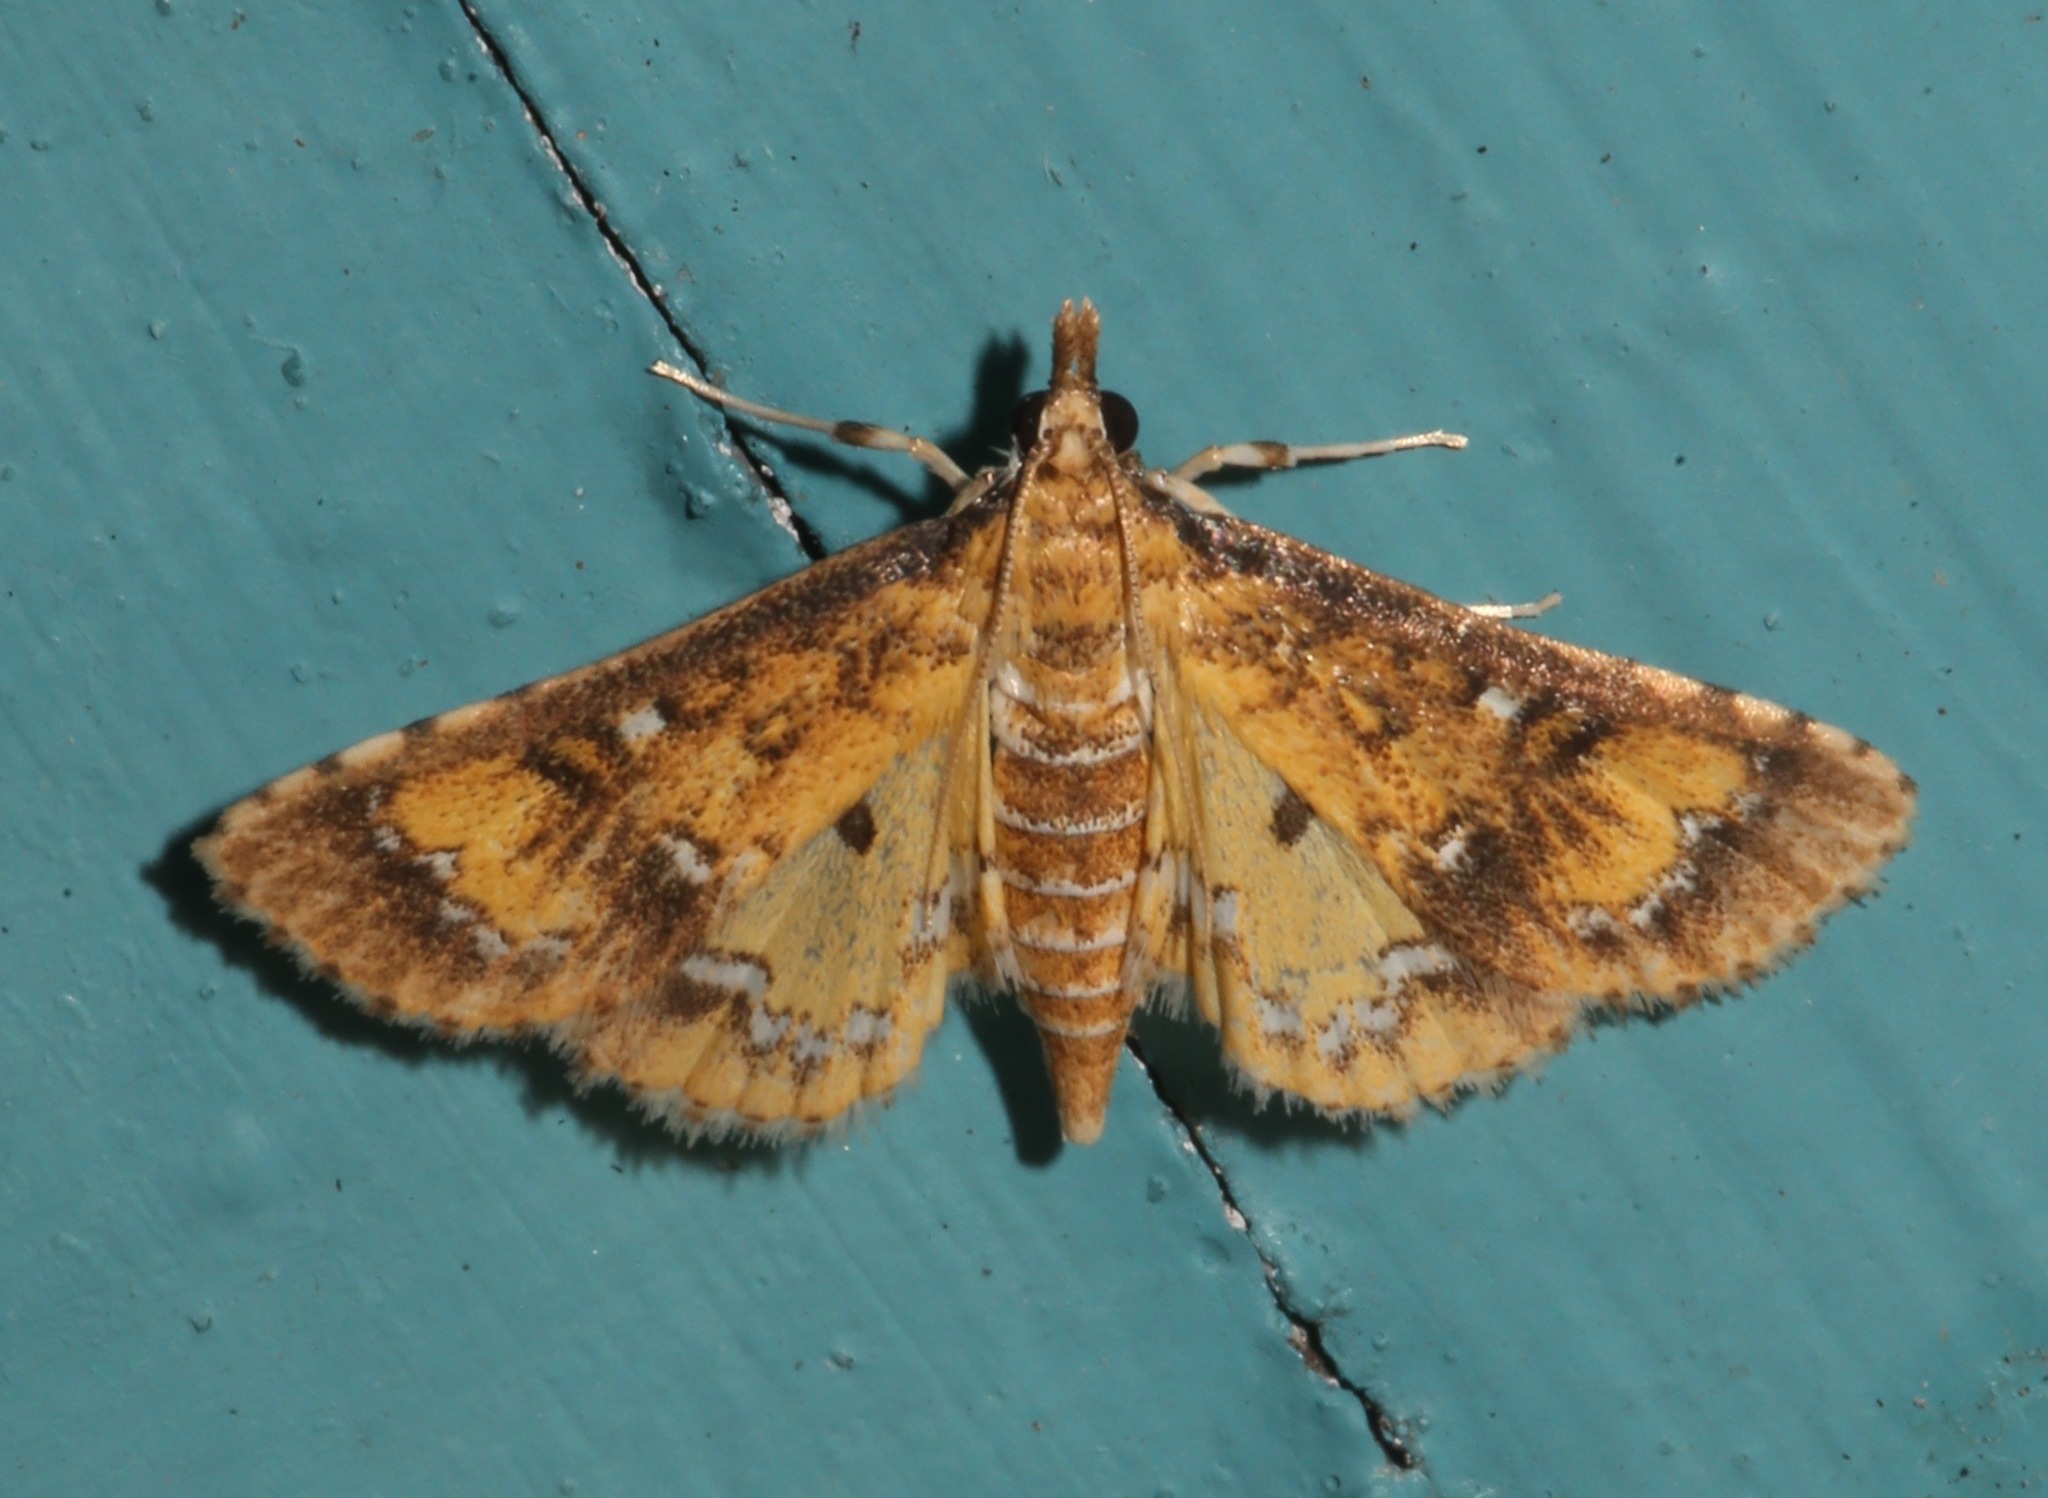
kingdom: Animalia
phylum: Arthropoda
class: Insecta
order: Lepidoptera
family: Crambidae
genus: Niphograpta
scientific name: Niphograpta albiguttalis
